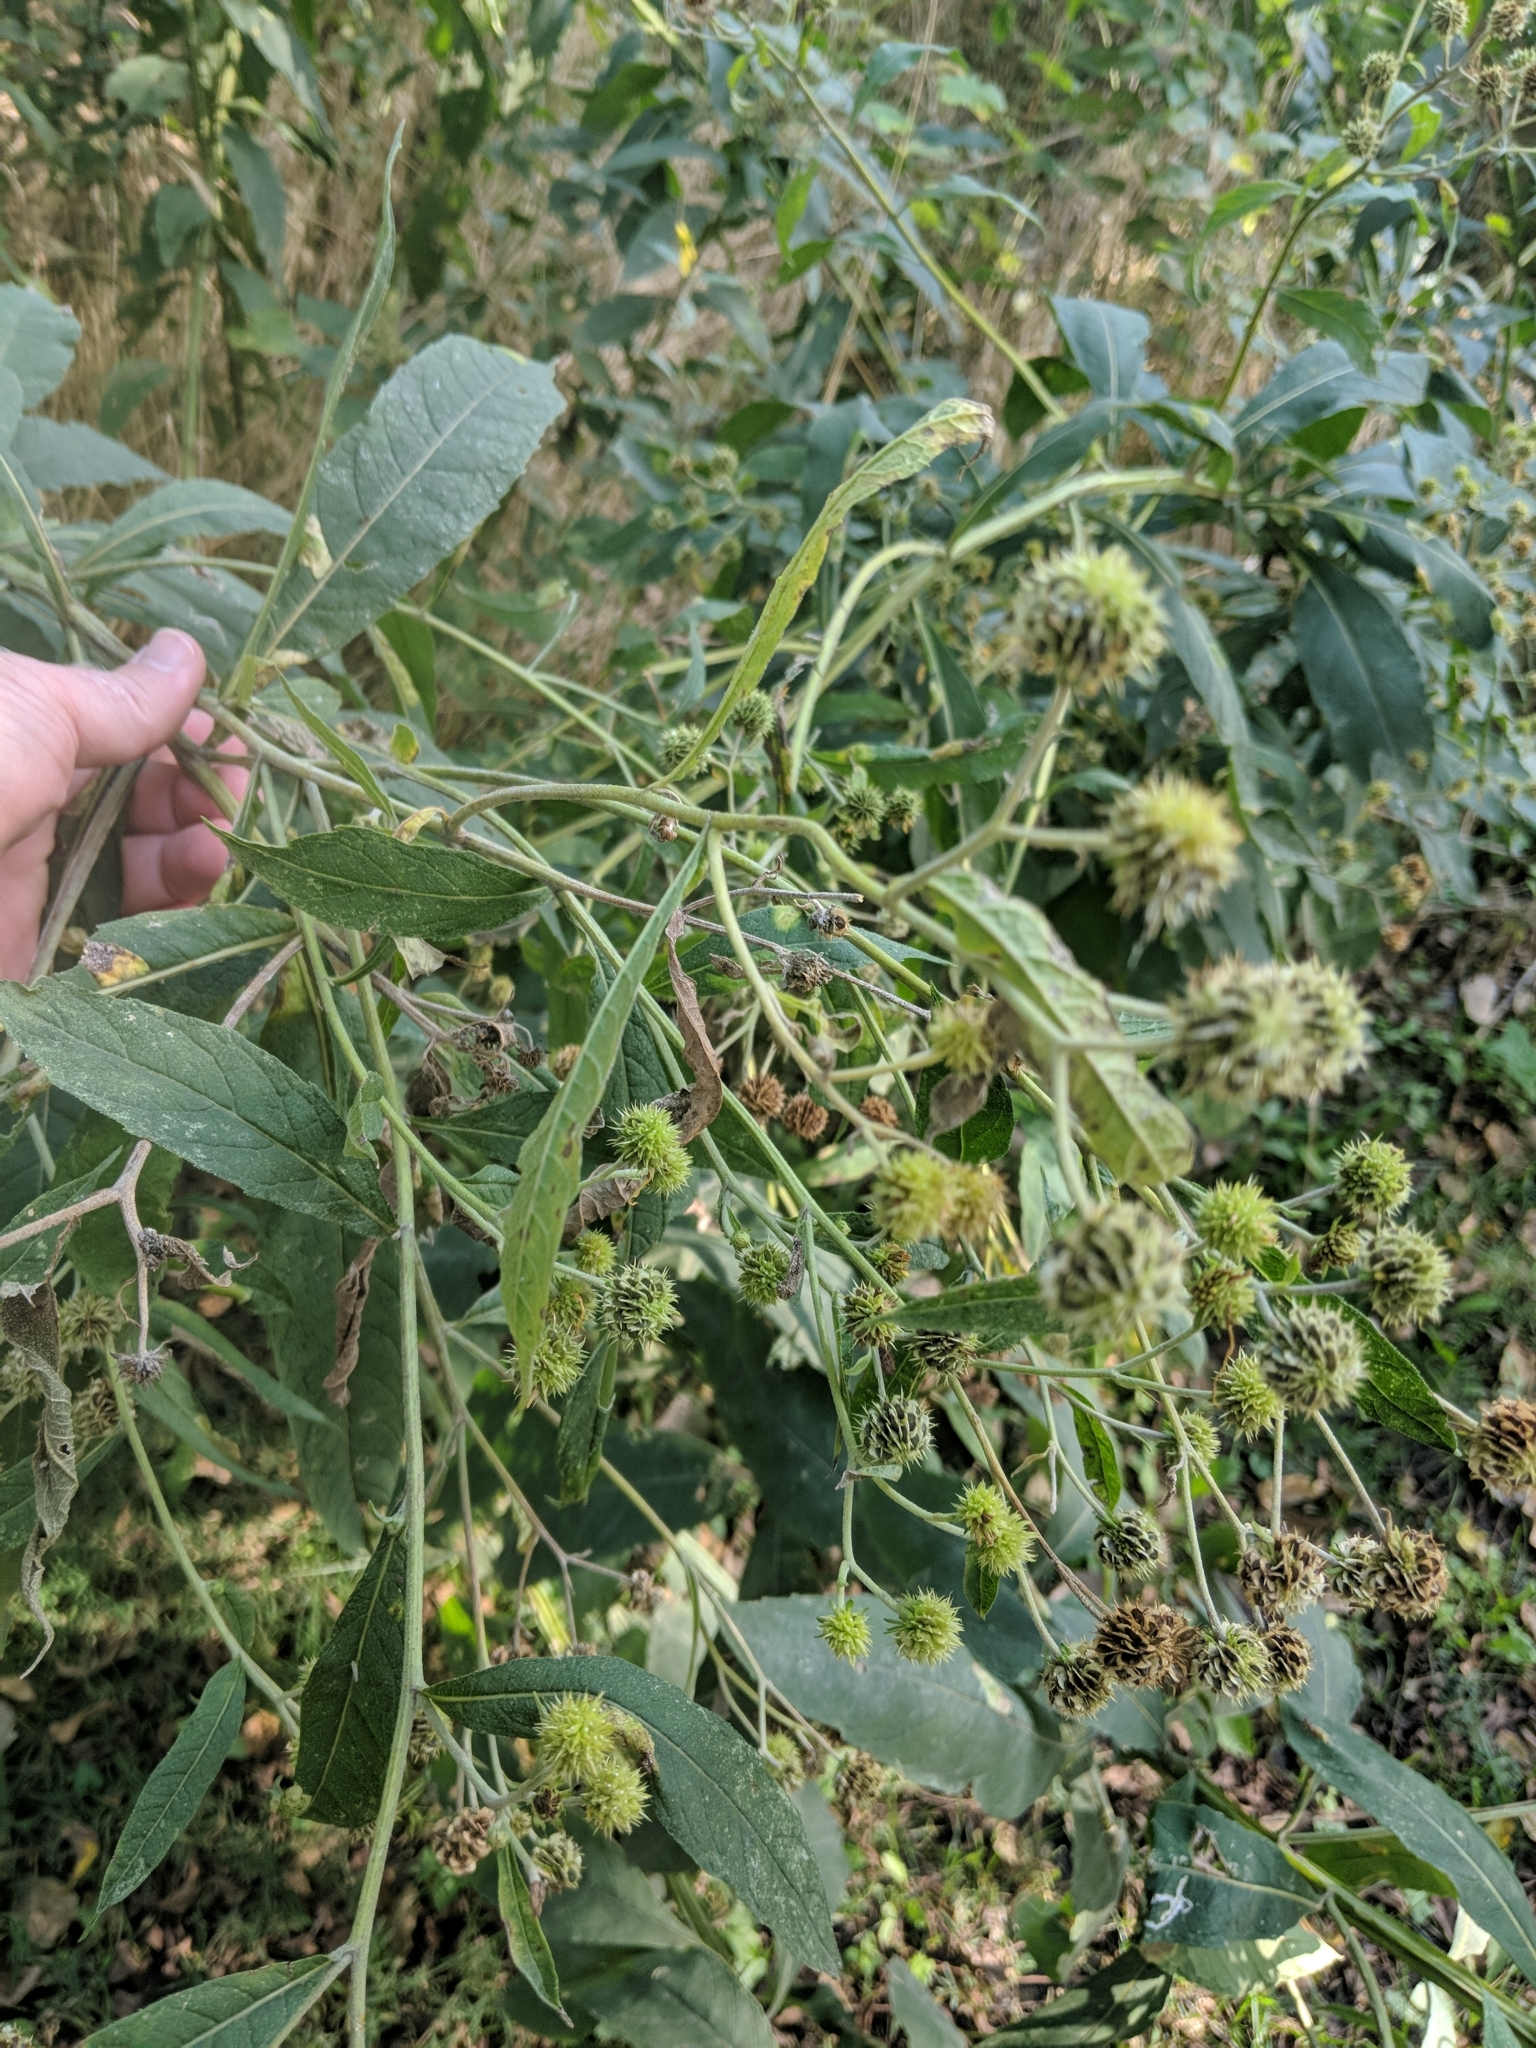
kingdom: Plantae
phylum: Tracheophyta
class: Magnoliopsida
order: Asterales
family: Asteraceae
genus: Verbesina
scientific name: Verbesina alternifolia
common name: Wingstem
